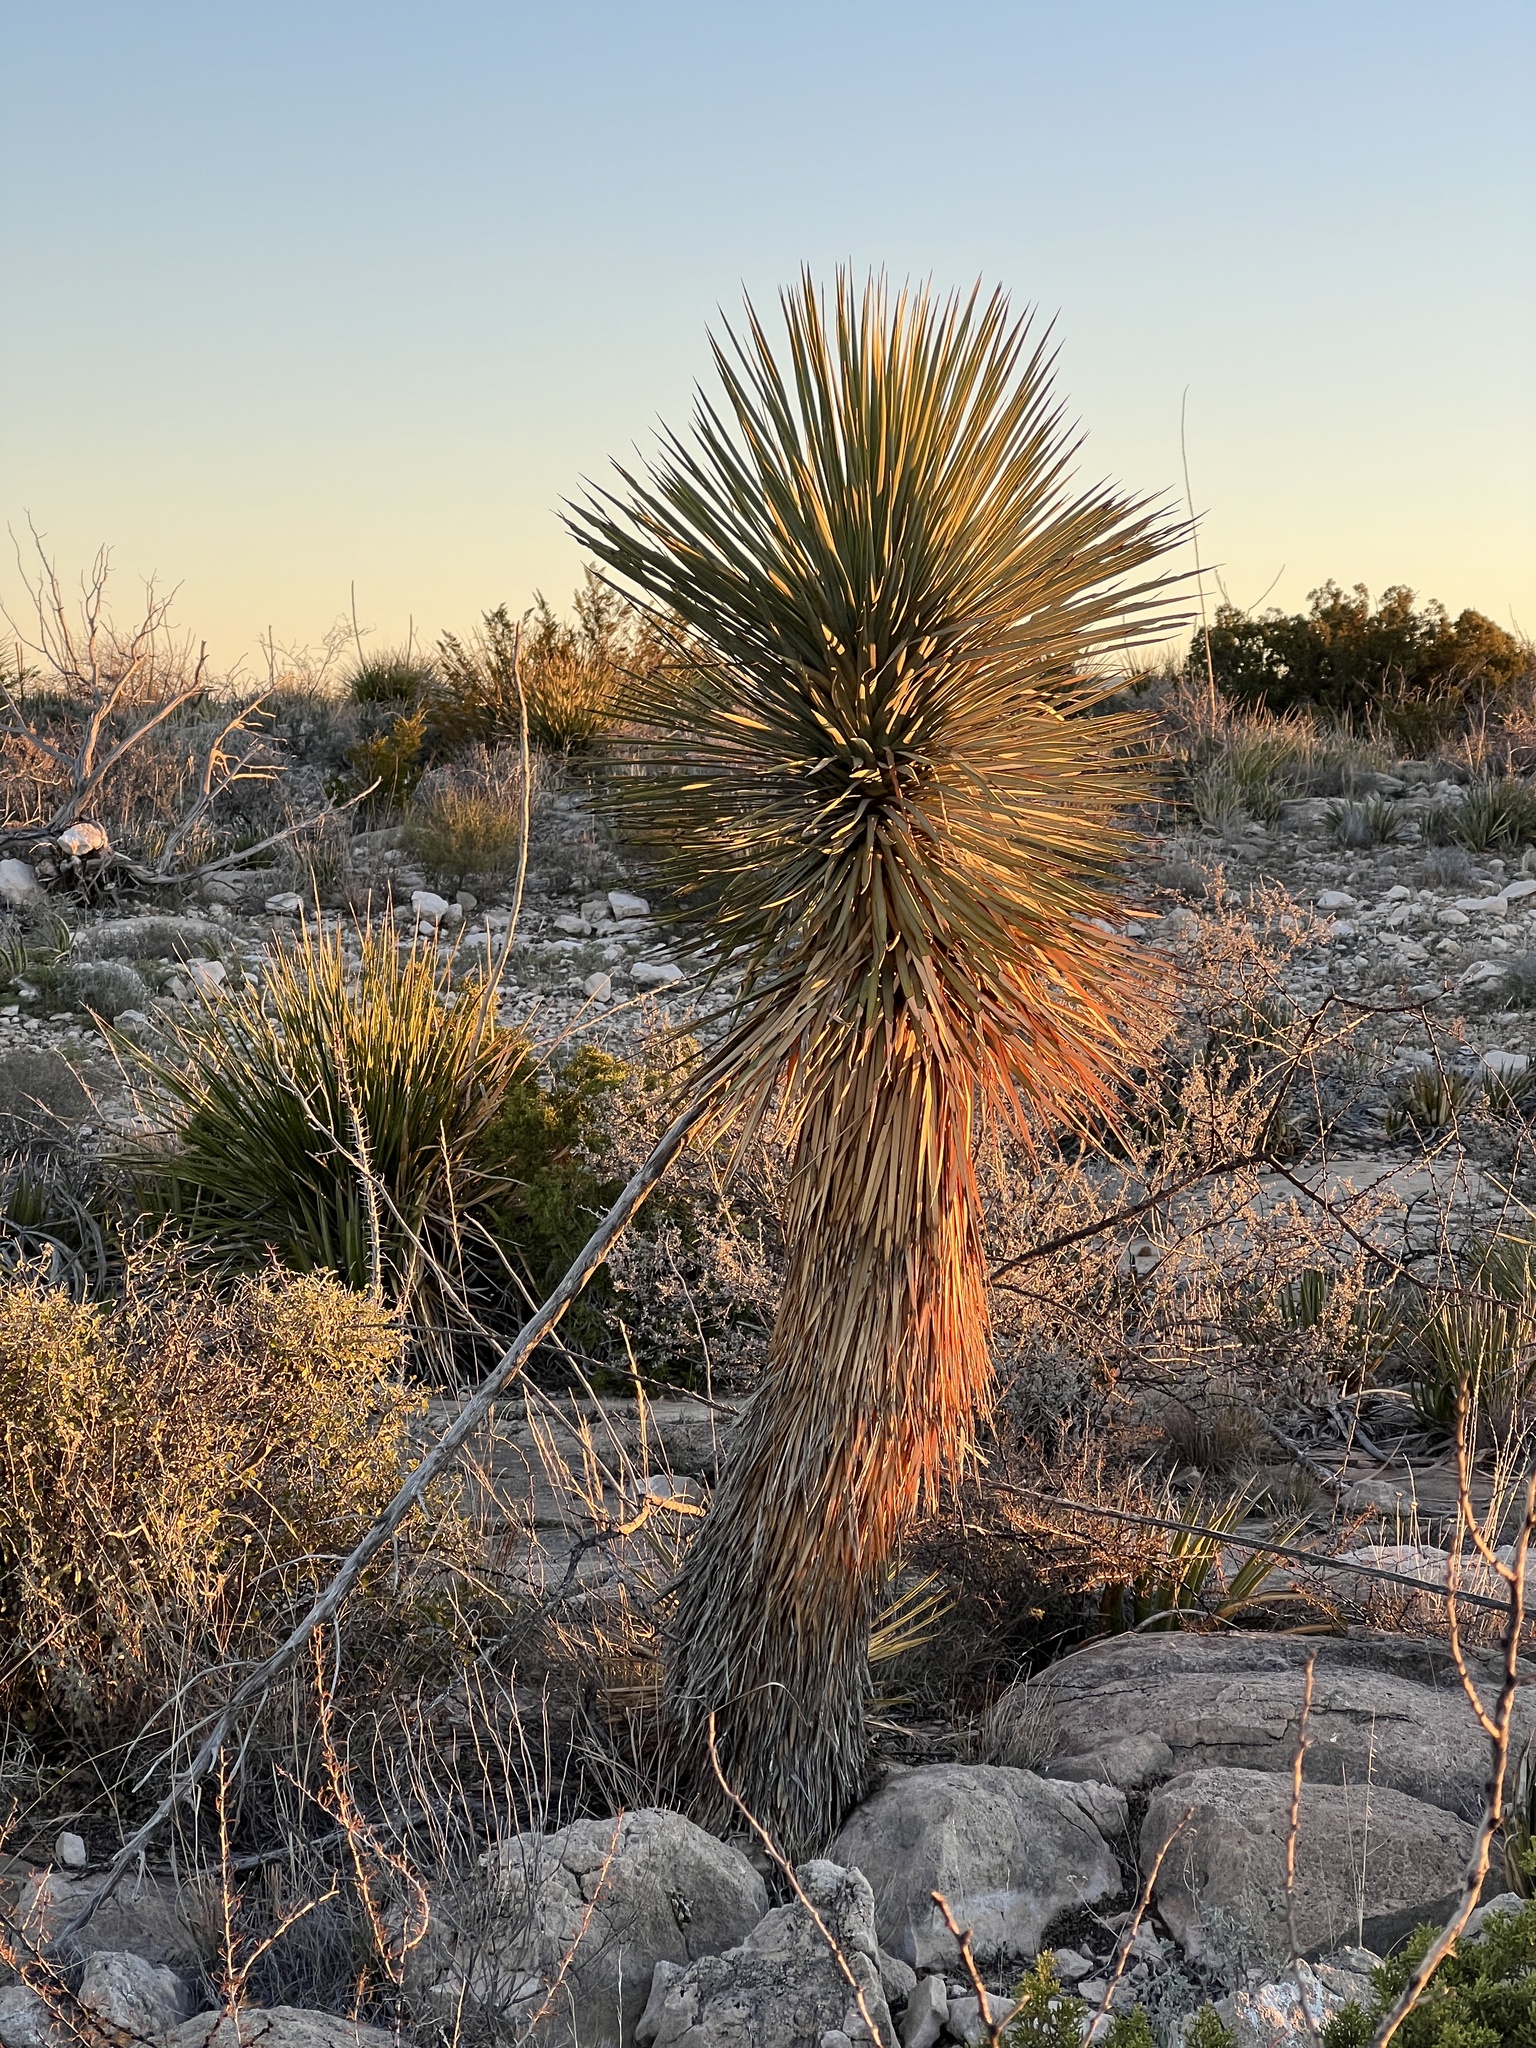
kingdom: Plantae
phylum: Tracheophyta
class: Liliopsida
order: Asparagales
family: Asparagaceae
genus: Yucca
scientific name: Yucca thompsoniana
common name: Trans-pecos yucca
